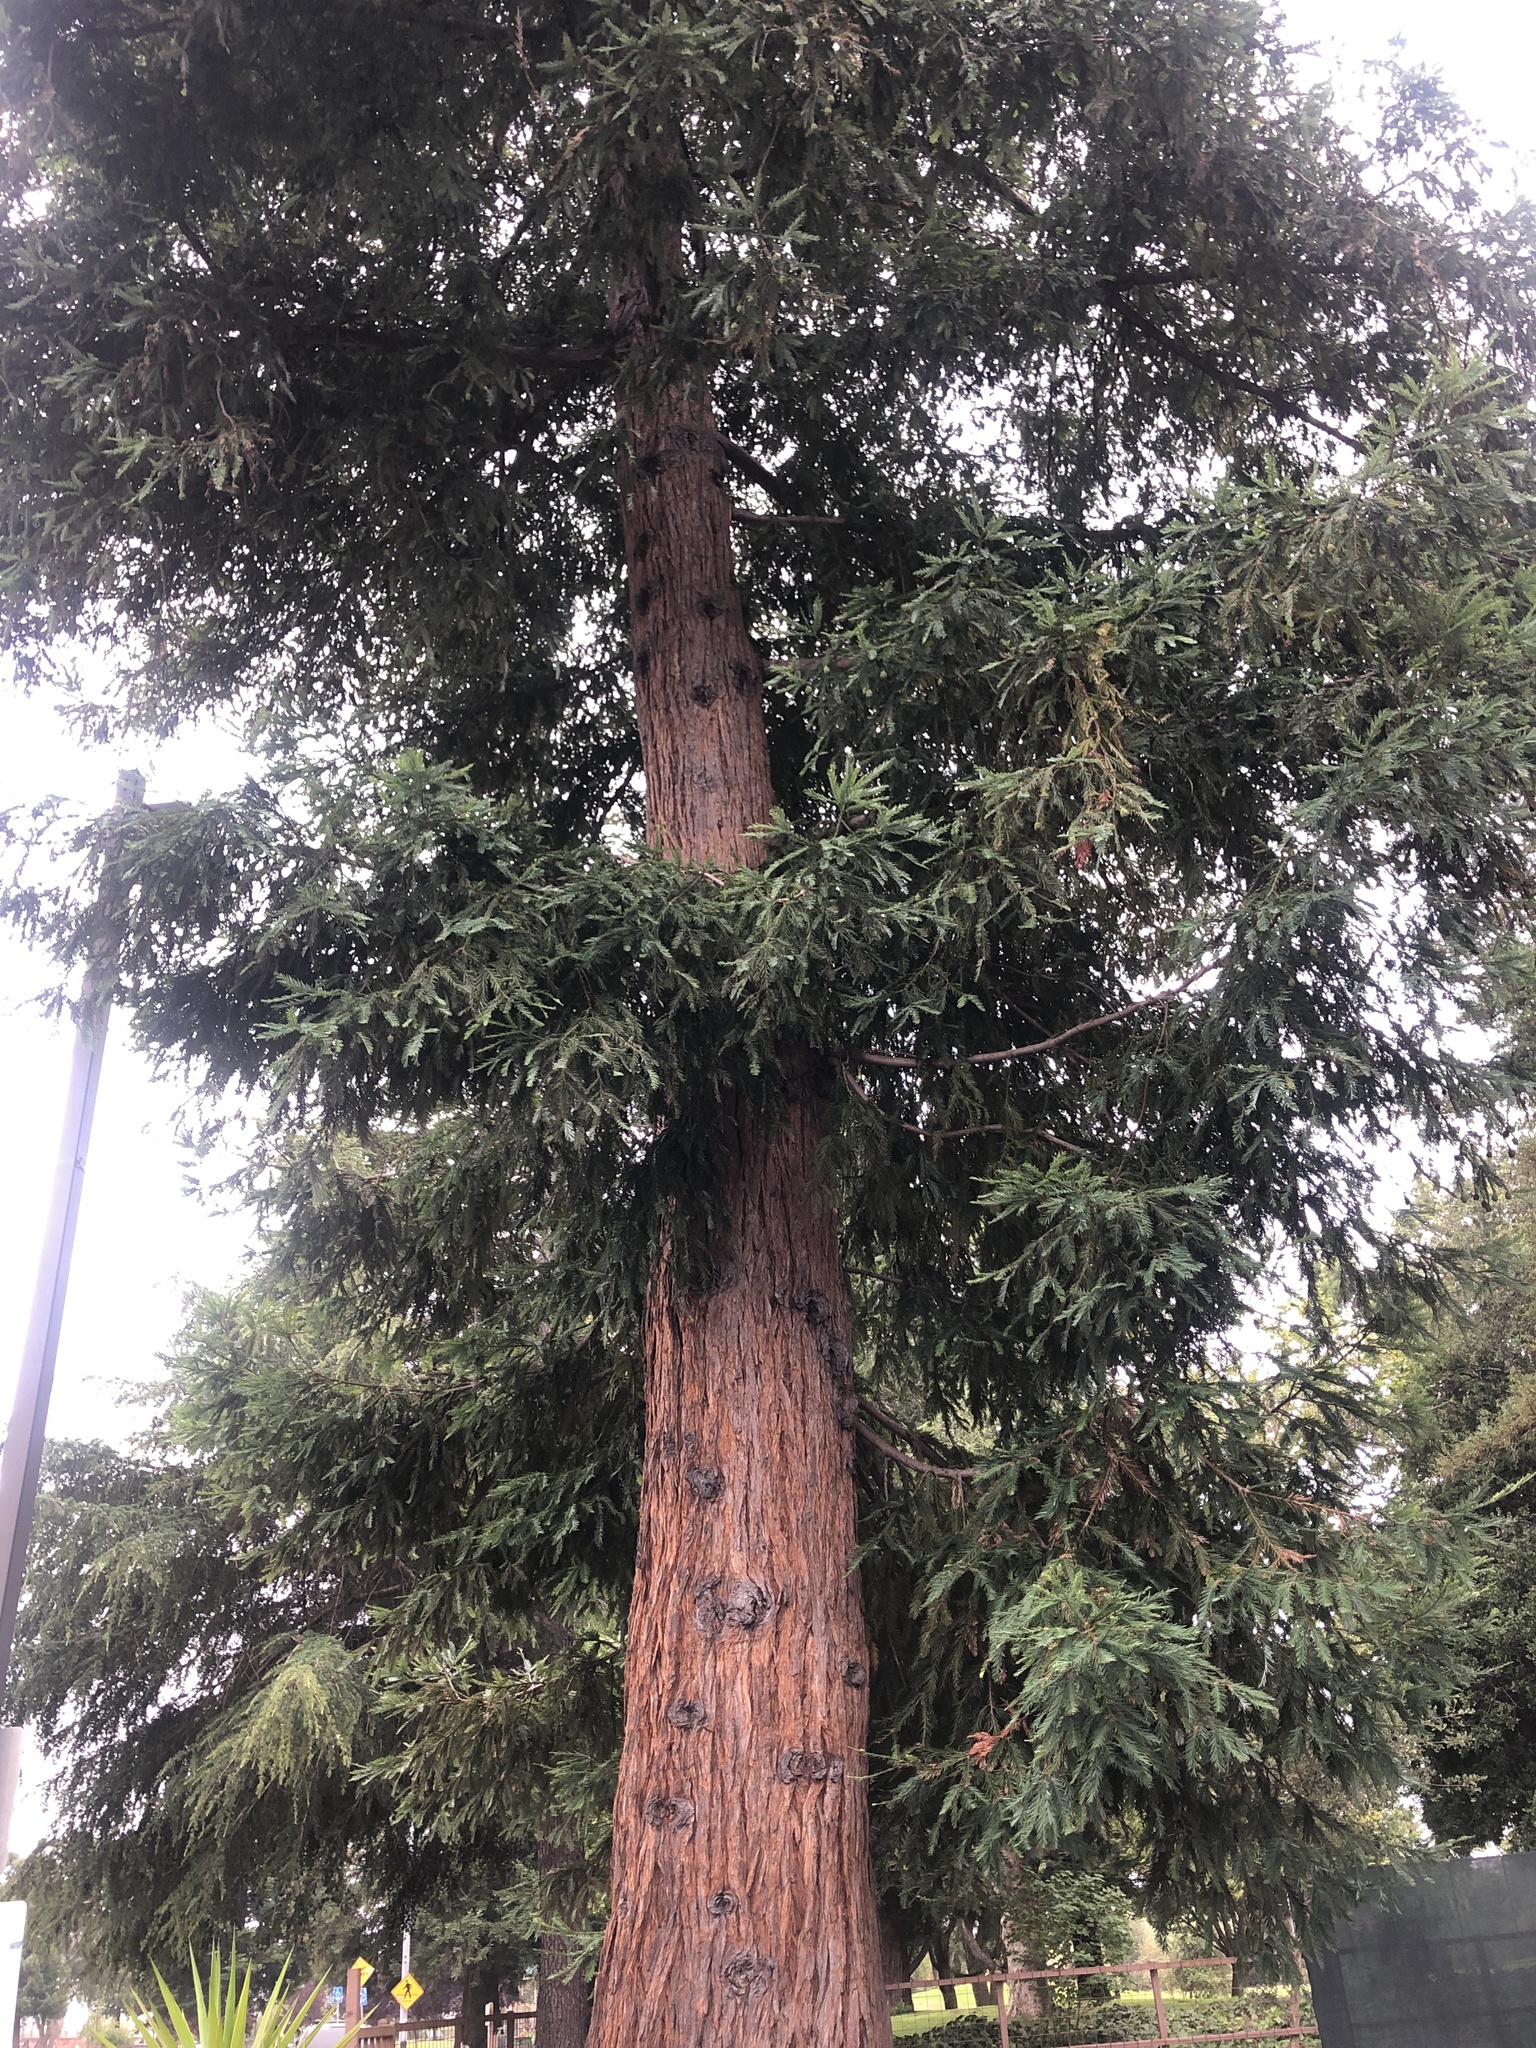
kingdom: Plantae
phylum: Tracheophyta
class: Pinopsida
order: Pinales
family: Cupressaceae
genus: Sequoia
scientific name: Sequoia sempervirens
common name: Coast redwood
